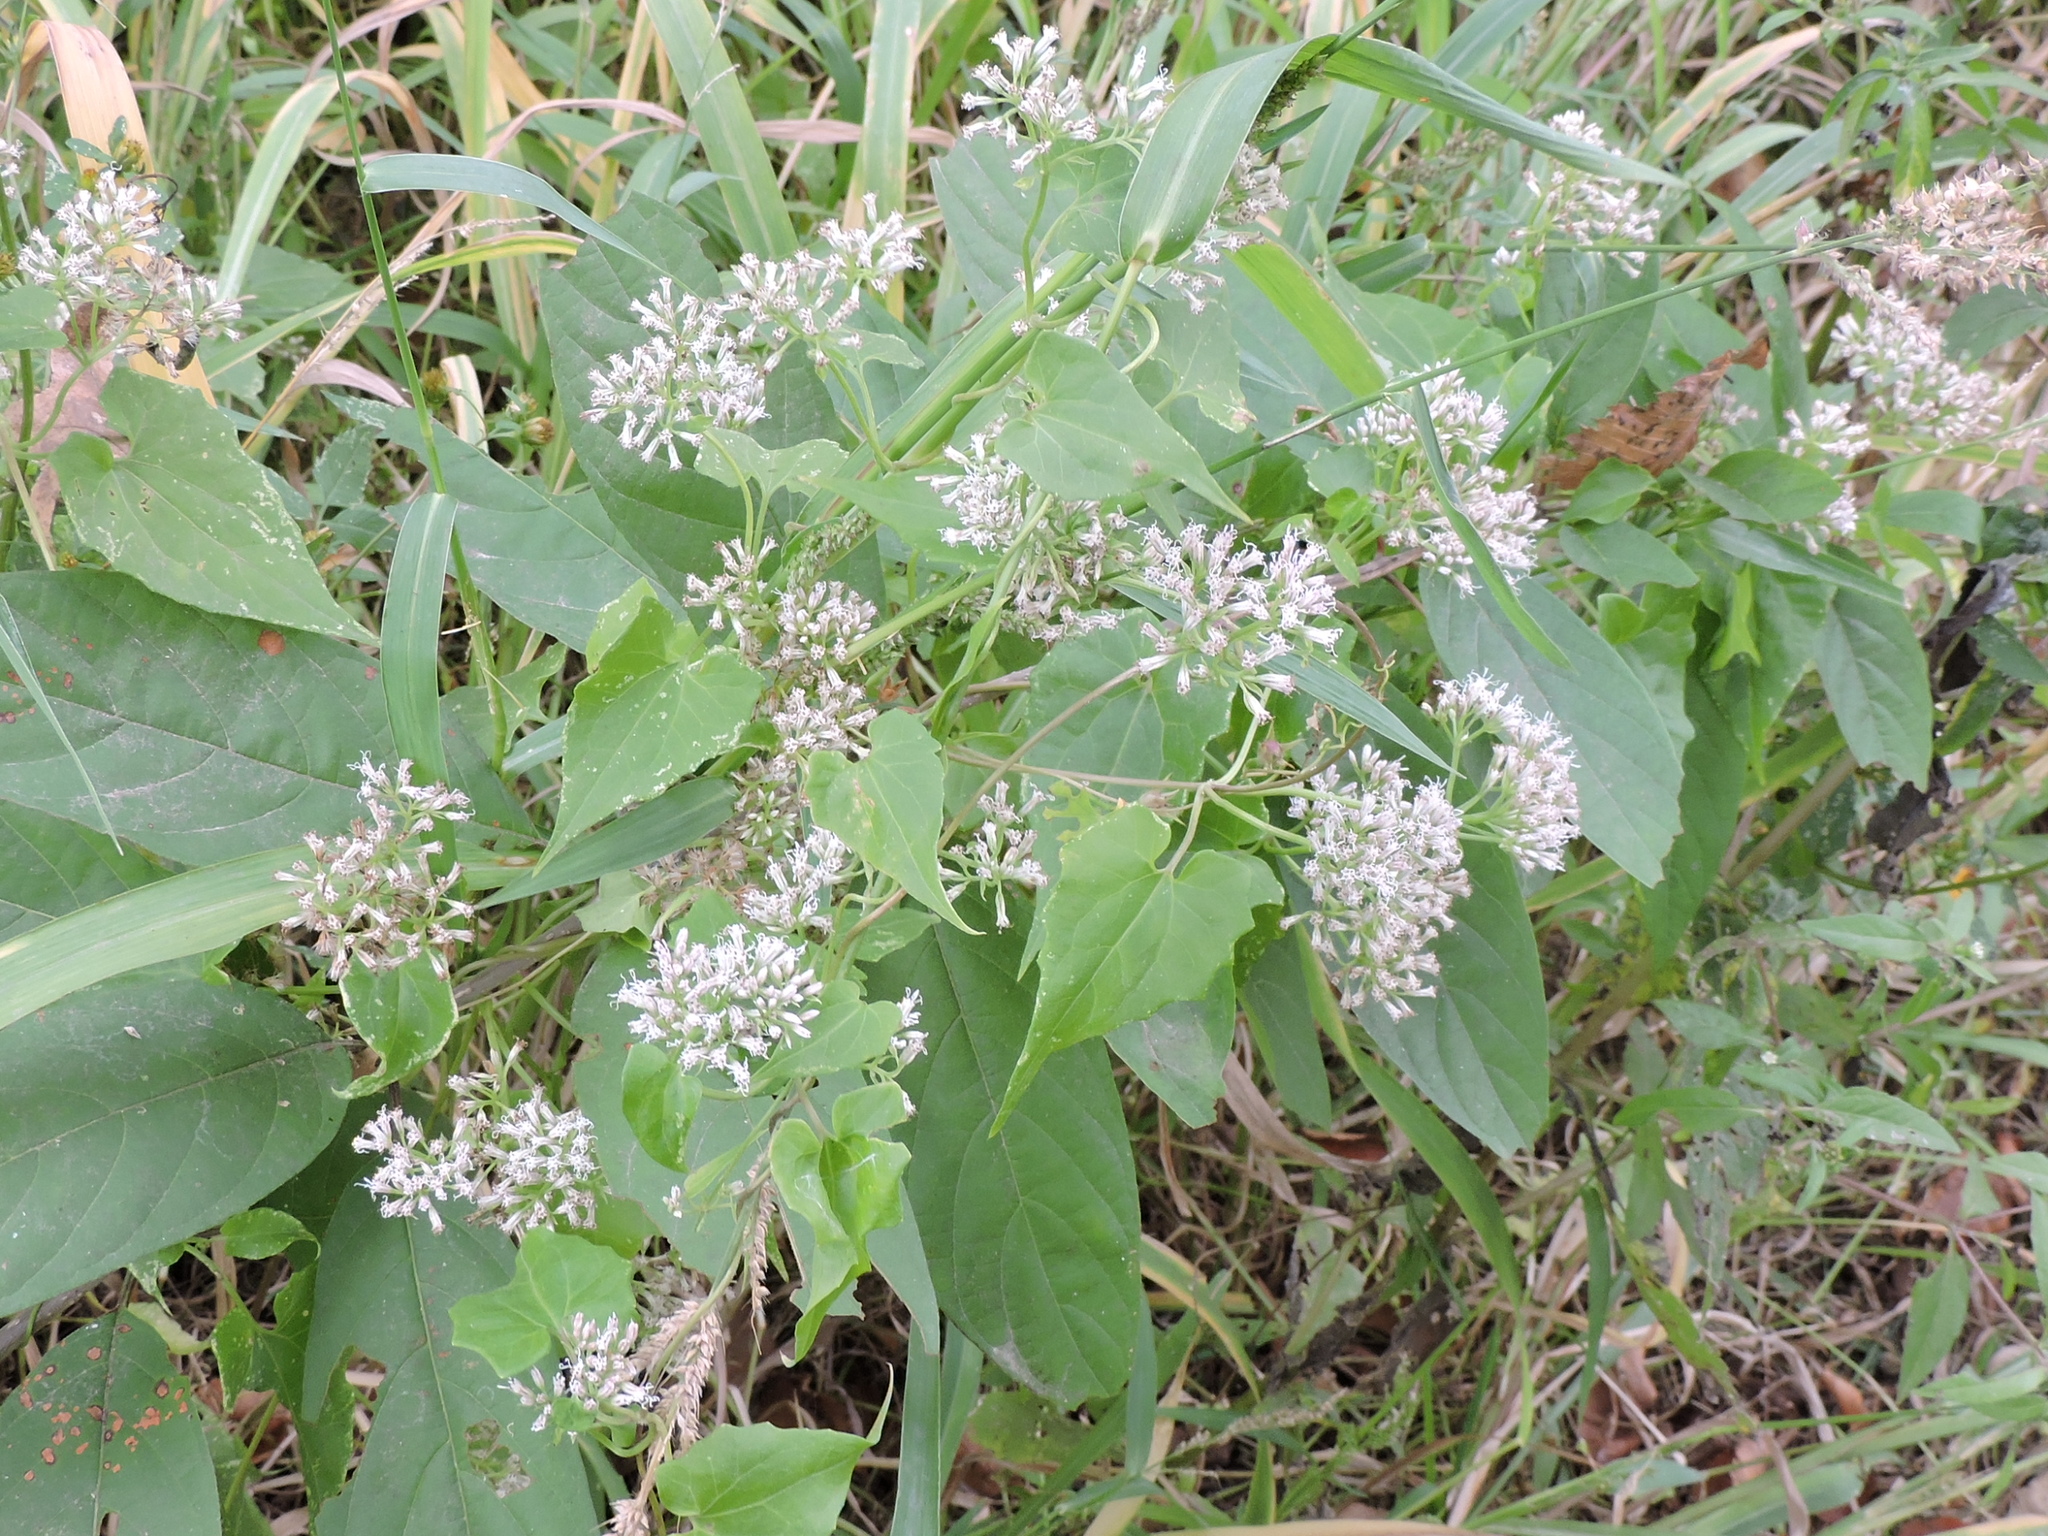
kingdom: Plantae
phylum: Tracheophyta
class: Magnoliopsida
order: Asterales
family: Asteraceae
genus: Mikania
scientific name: Mikania scandens
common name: Climbing hempvine
